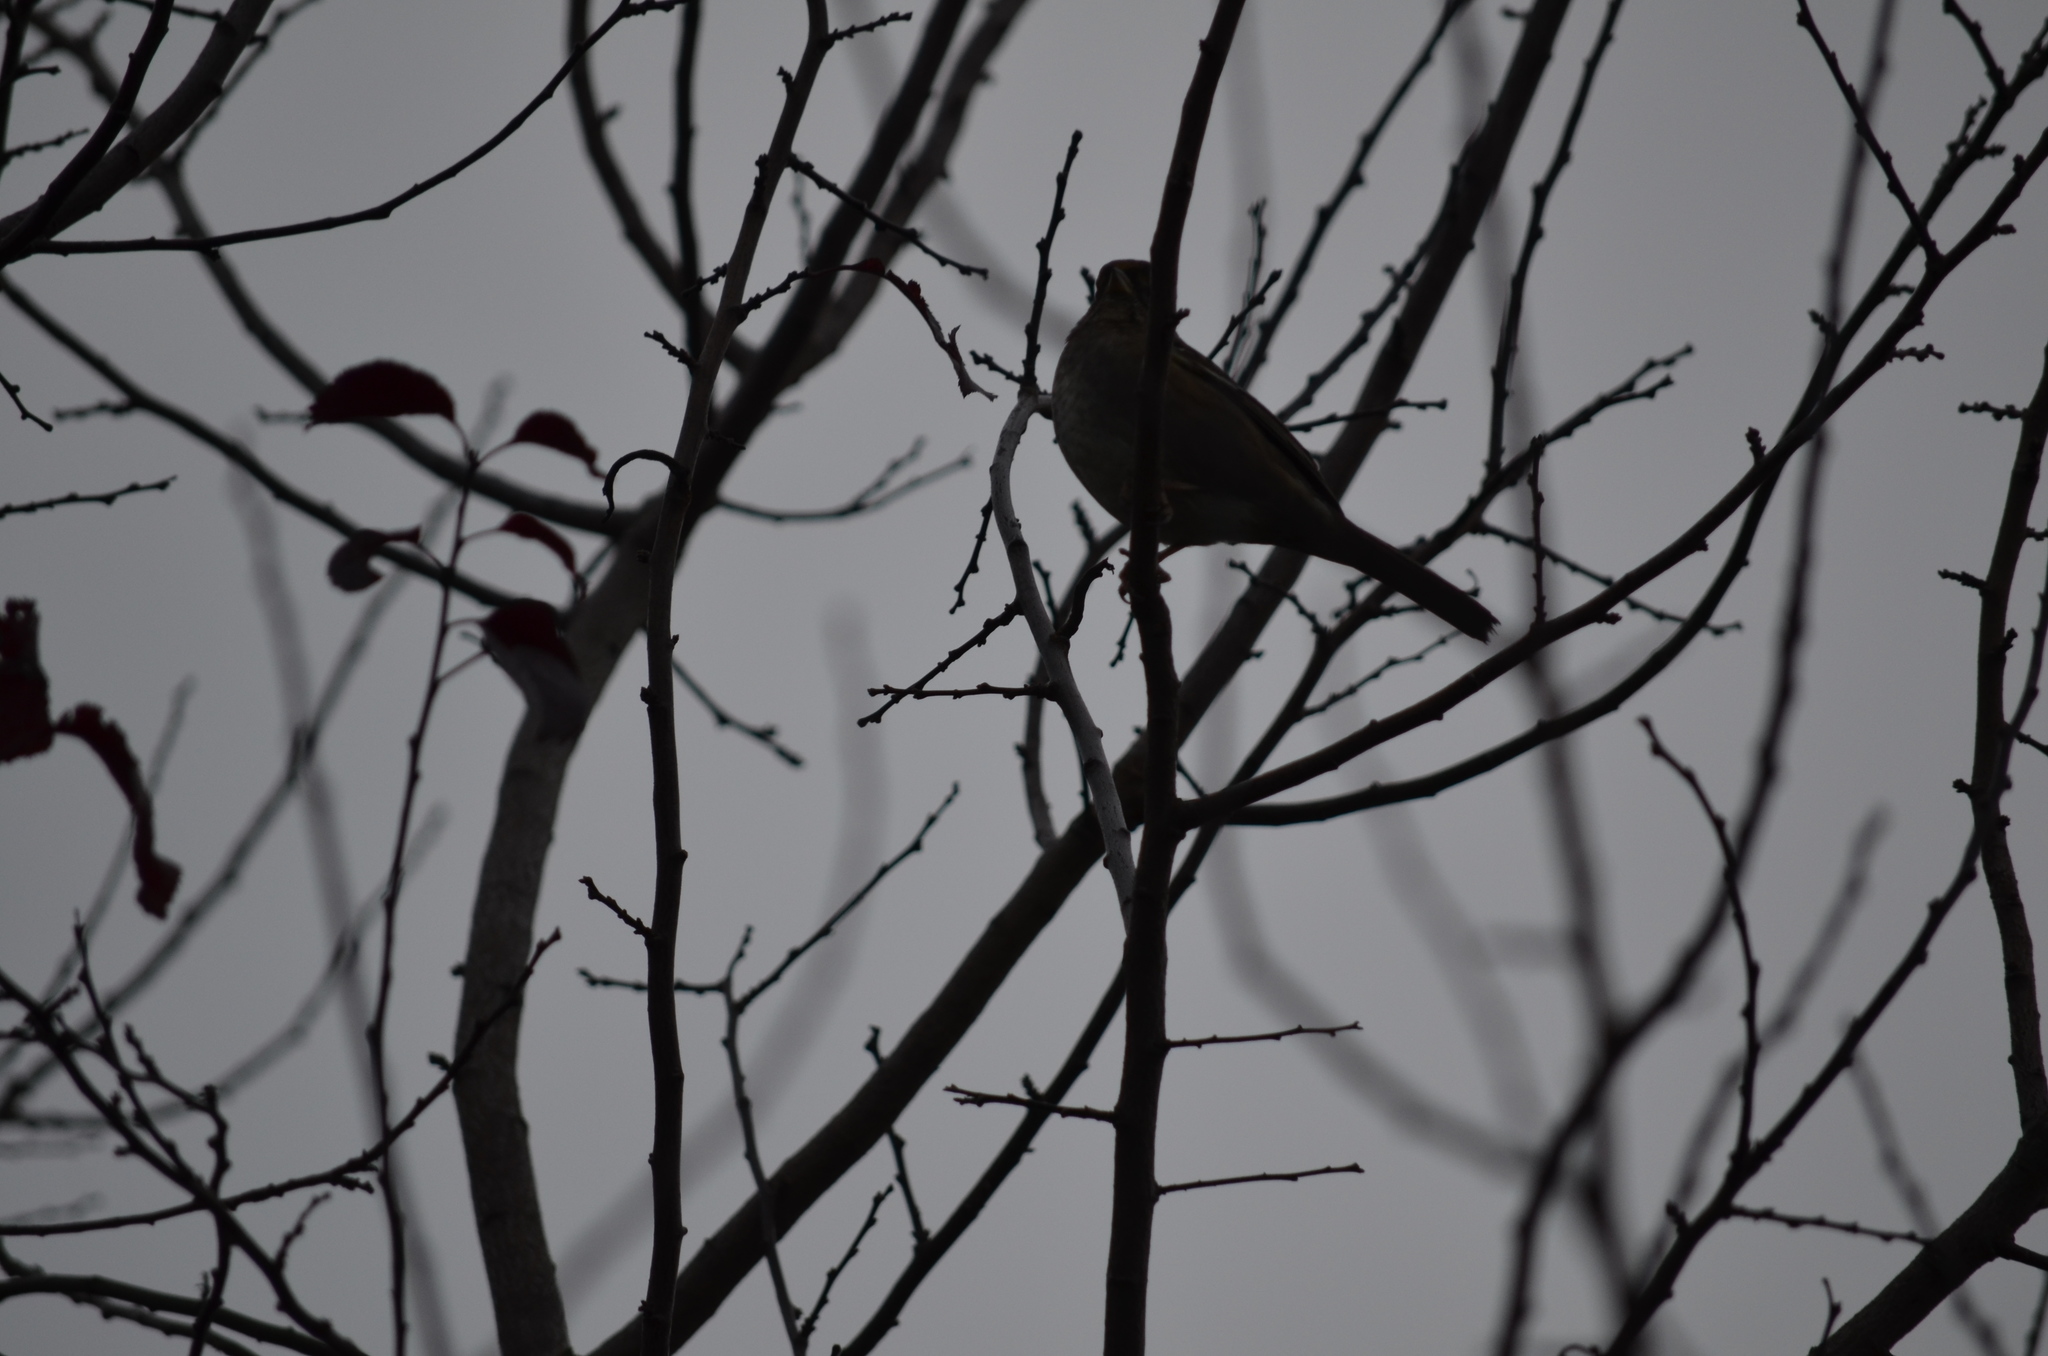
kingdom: Animalia
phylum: Chordata
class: Aves
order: Passeriformes
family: Passerellidae
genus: Zonotrichia
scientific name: Zonotrichia atricapilla
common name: Golden-crowned sparrow
